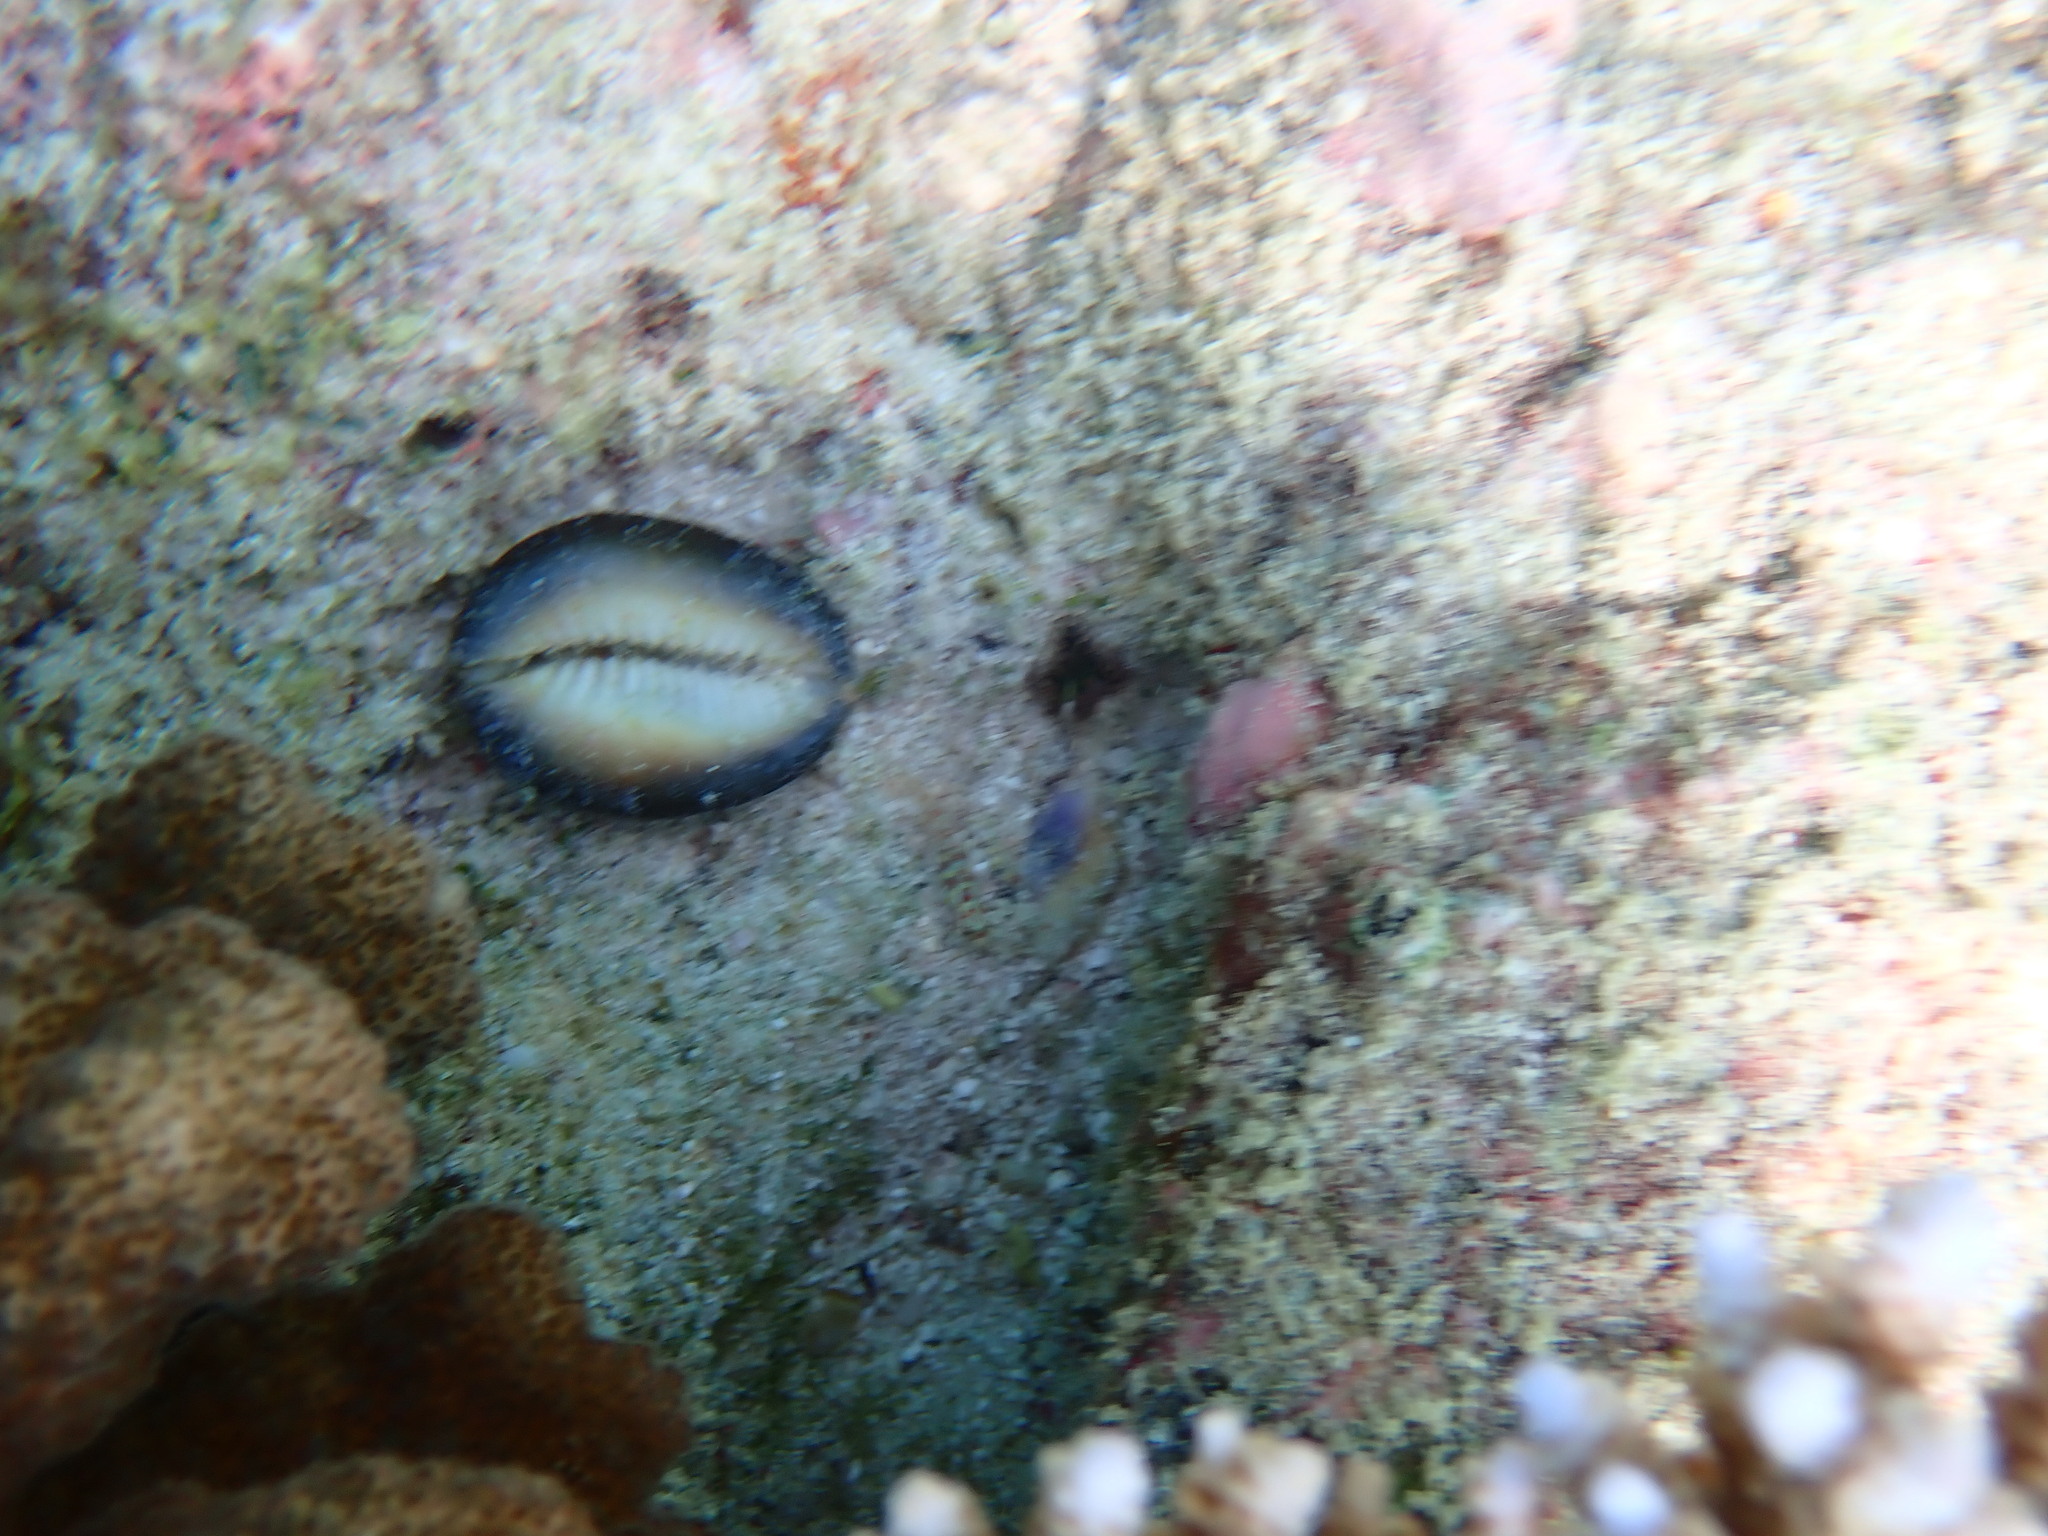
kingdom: Animalia
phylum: Mollusca
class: Gastropoda
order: Littorinimorpha
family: Cypraeidae
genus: Monetaria
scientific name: Monetaria caputserpentis
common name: Serpent's head cowrie
